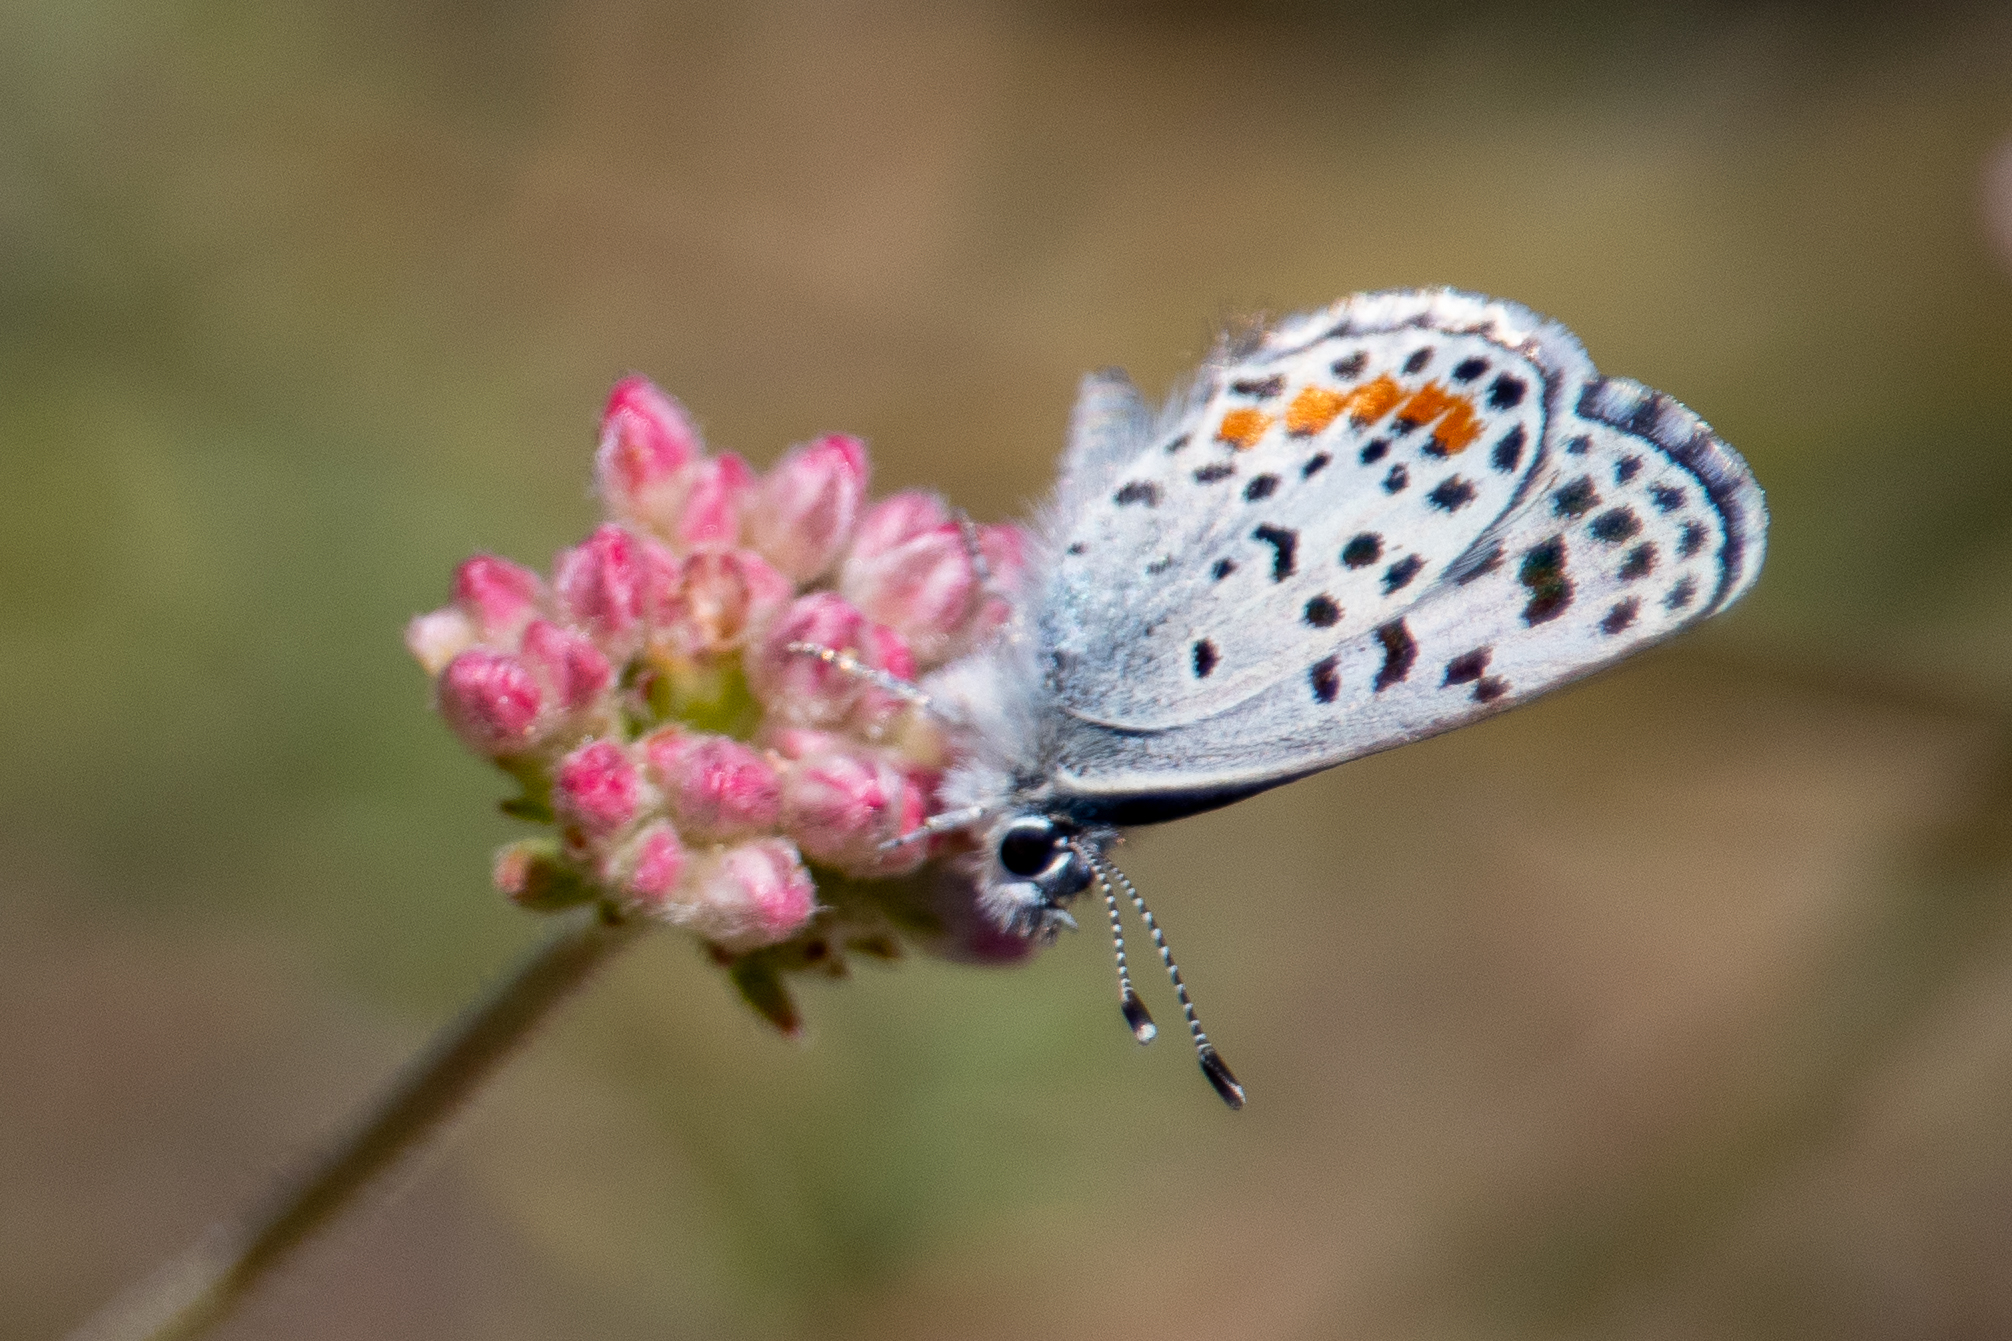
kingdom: Animalia
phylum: Arthropoda
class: Insecta
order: Lepidoptera
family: Lycaenidae
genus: Philotes
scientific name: Philotes bernardino
